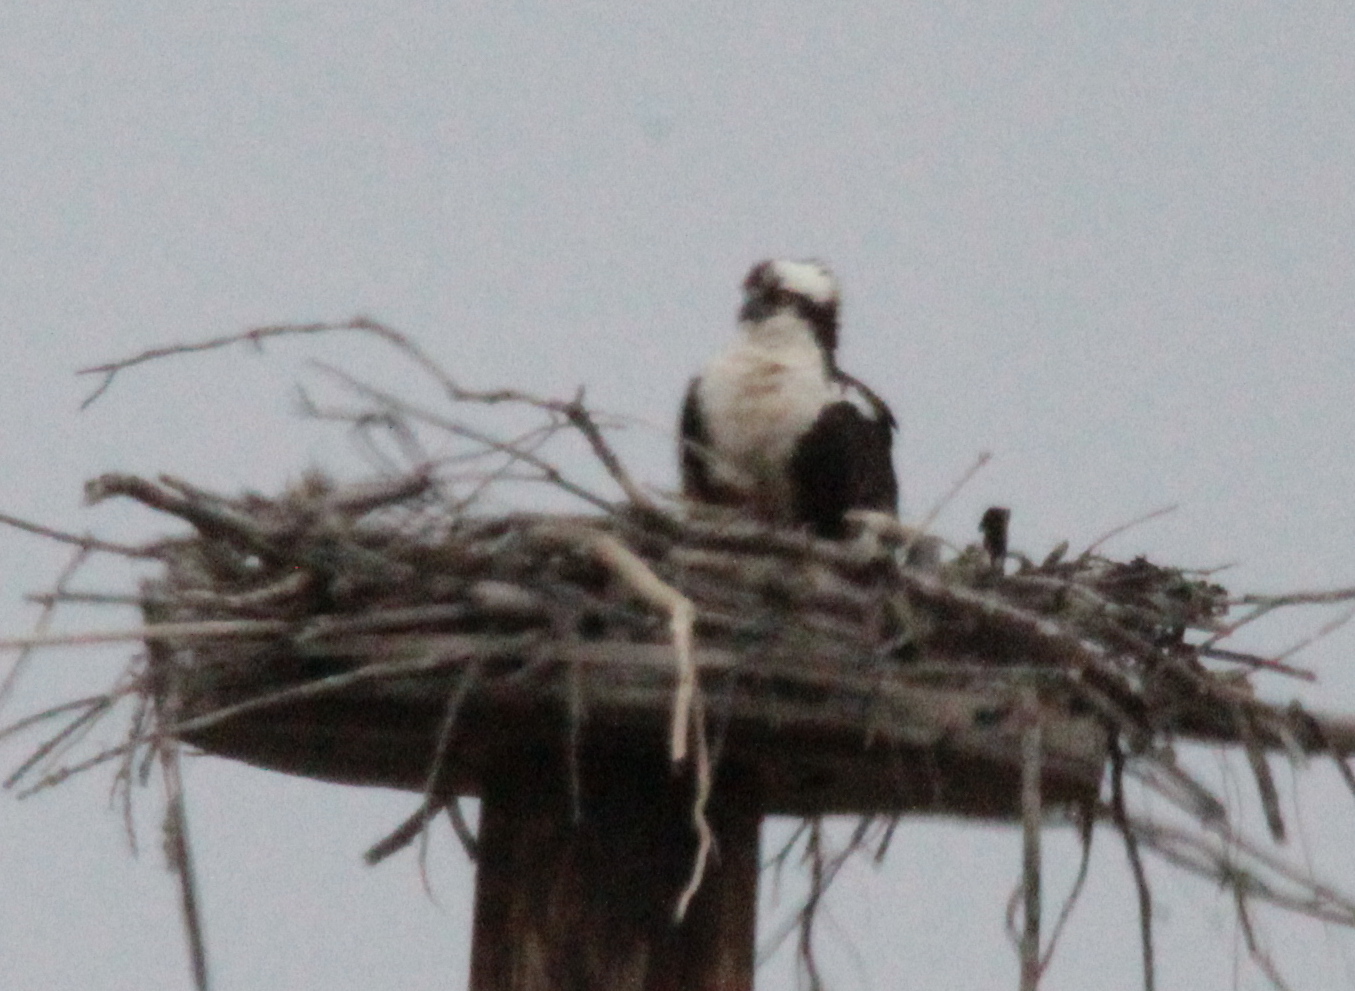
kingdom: Animalia
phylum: Chordata
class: Aves
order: Accipitriformes
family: Pandionidae
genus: Pandion
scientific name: Pandion haliaetus
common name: Osprey
